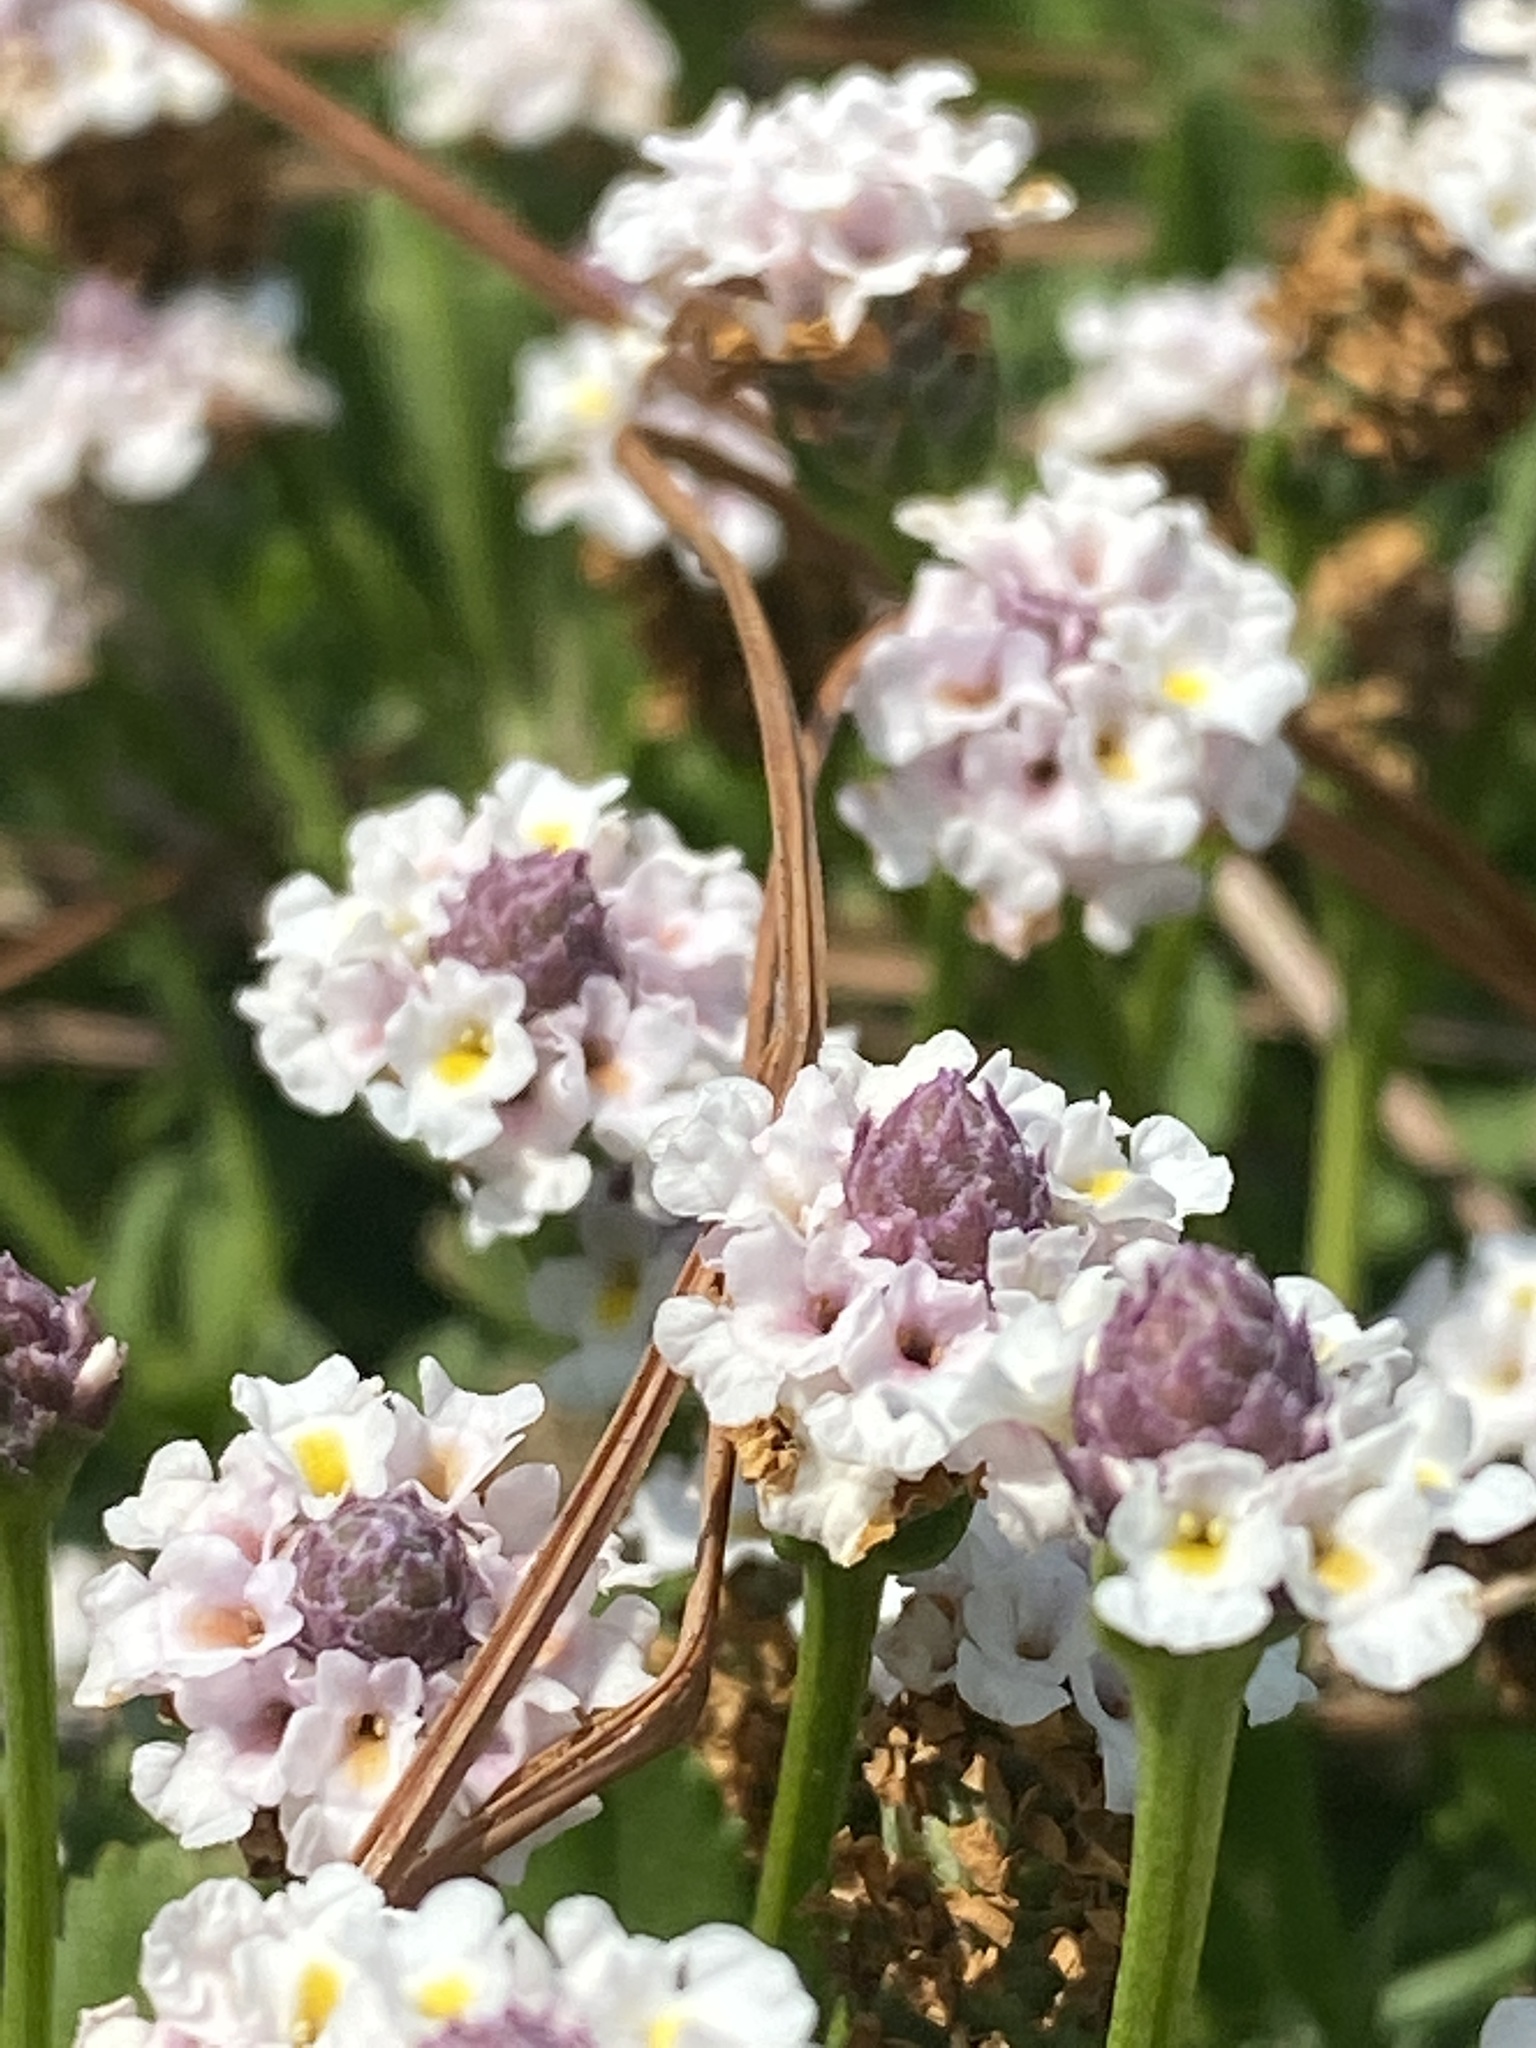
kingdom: Plantae
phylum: Tracheophyta
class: Magnoliopsida
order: Lamiales
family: Verbenaceae
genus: Phyla
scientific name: Phyla nodiflora
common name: Frogfruit
